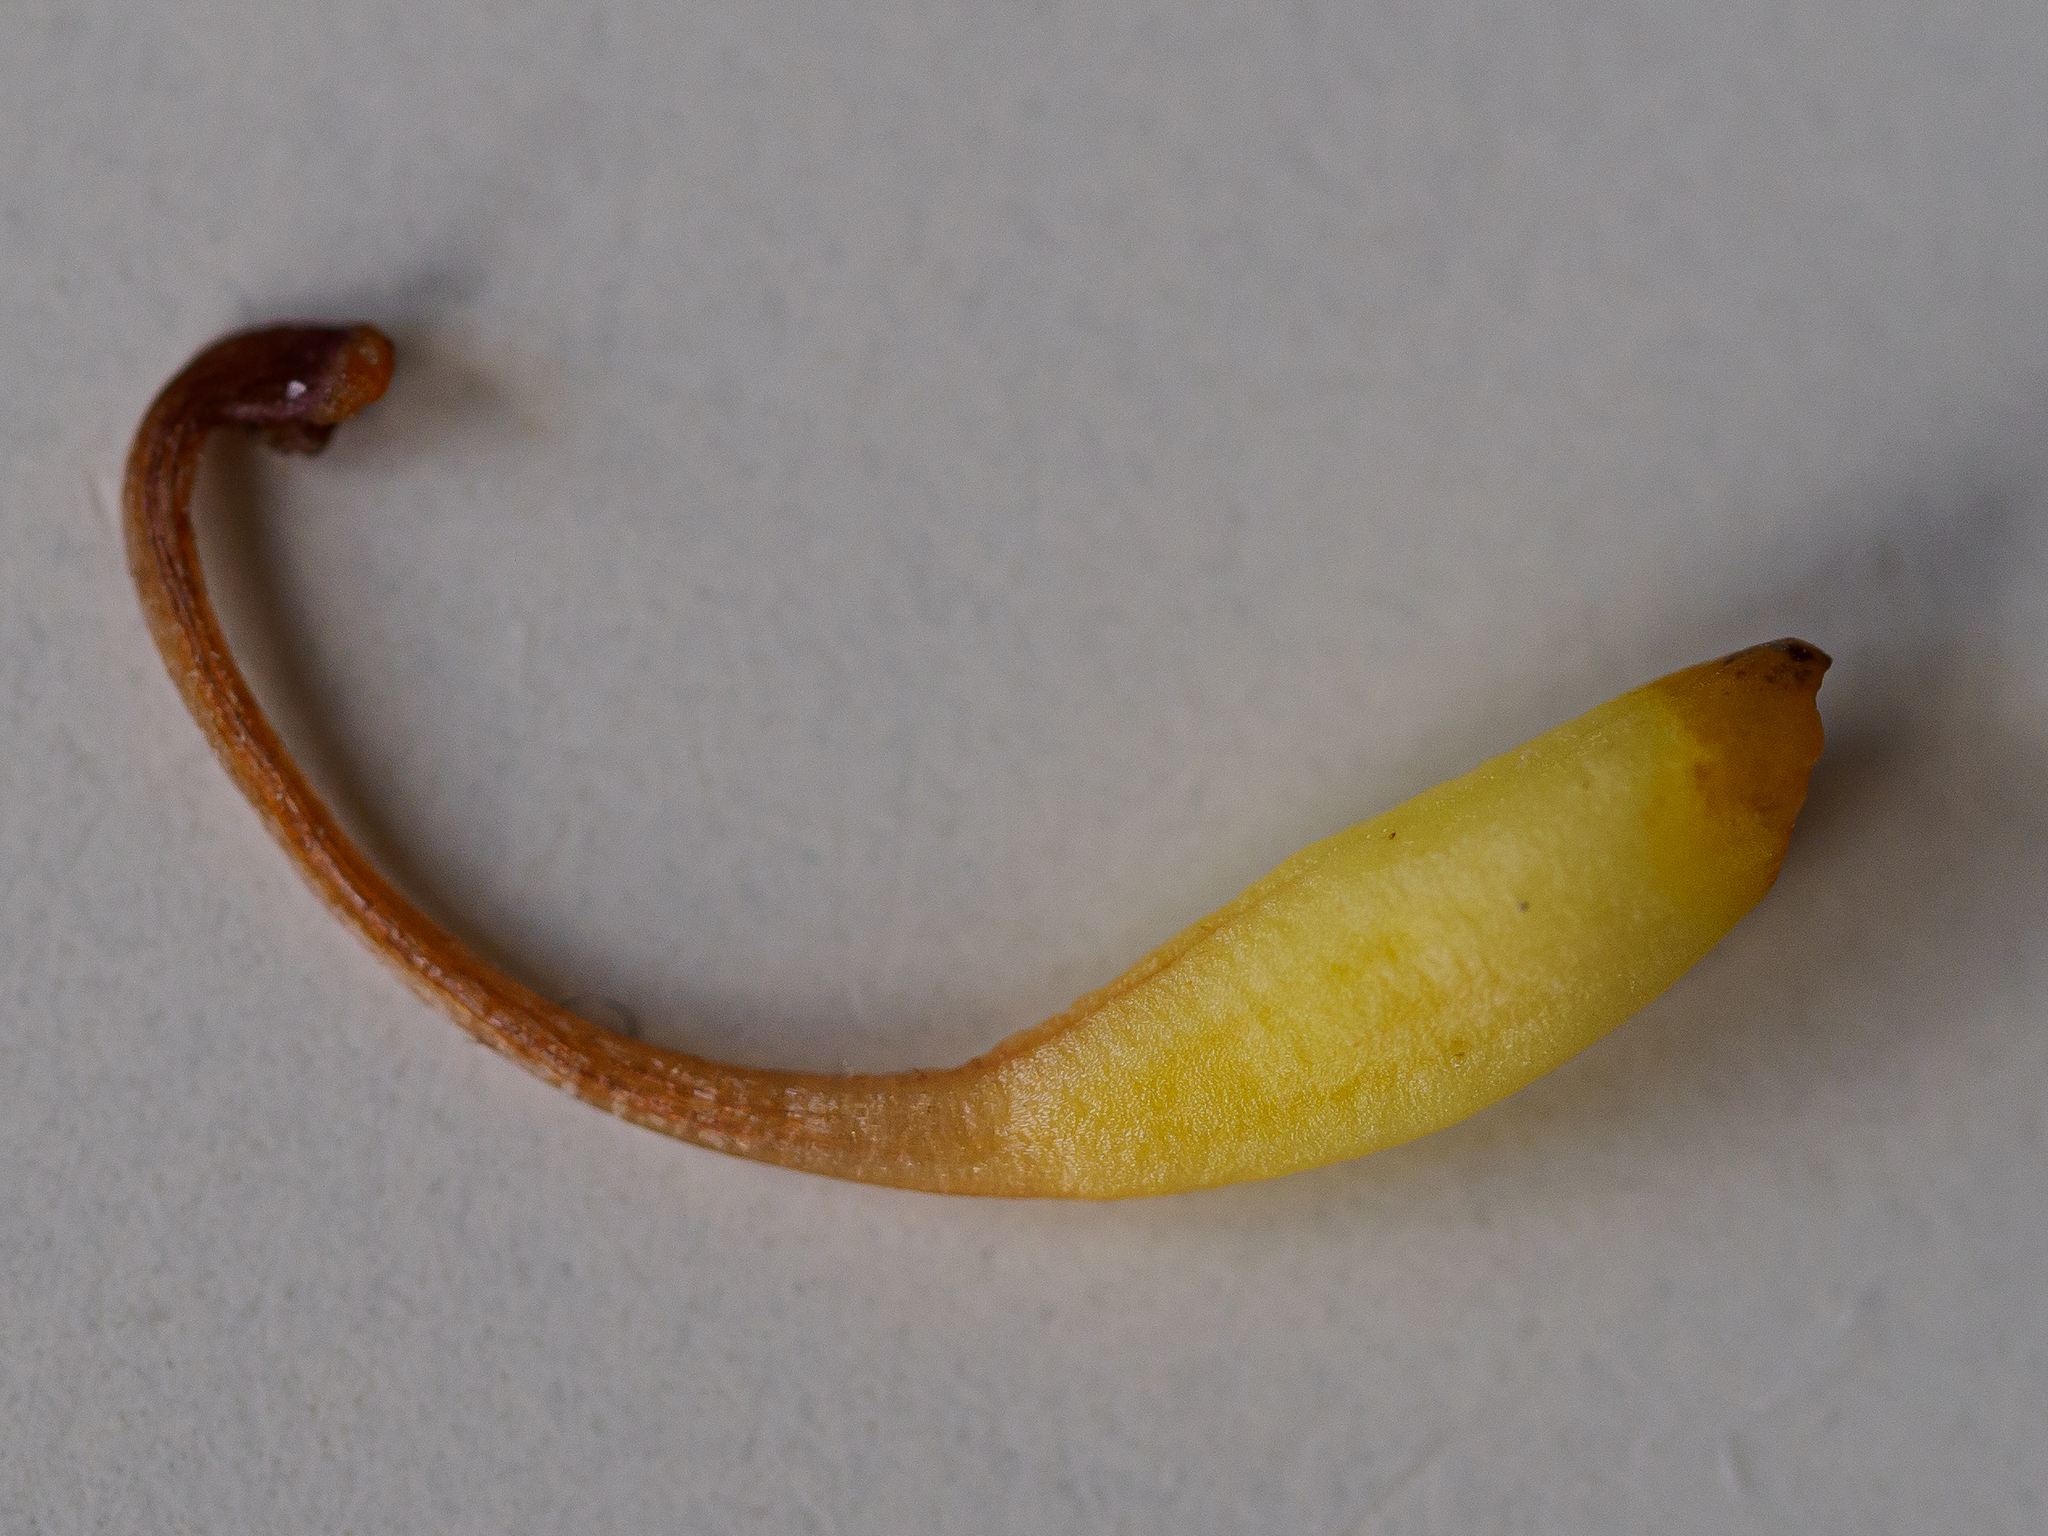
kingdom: Plantae
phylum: Tracheophyta
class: Magnoliopsida
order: Lamiales
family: Orobanchaceae
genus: Orobanche
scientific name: Orobanche flava
